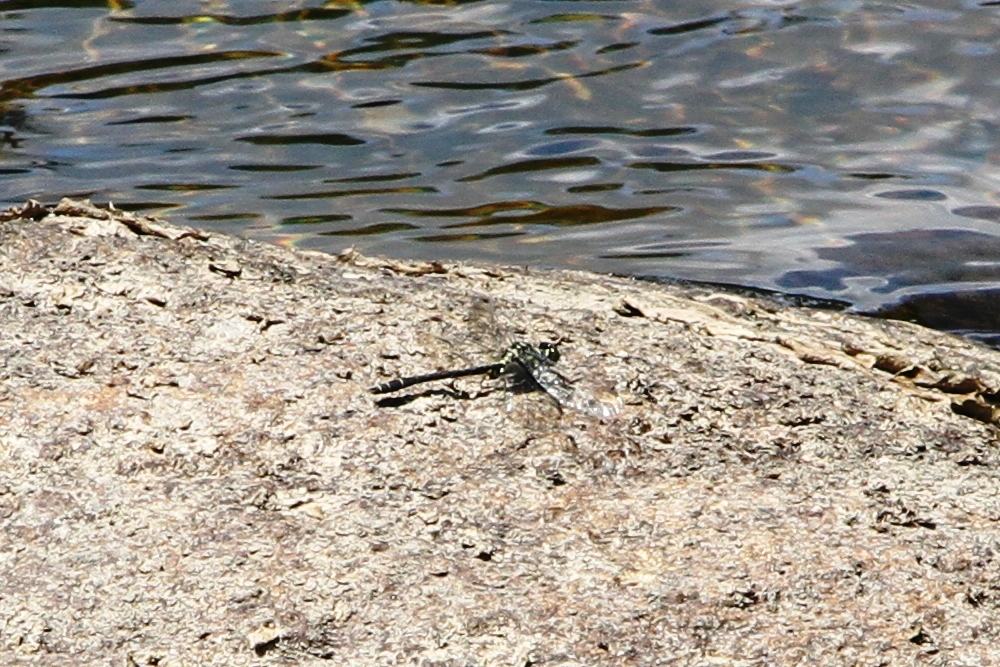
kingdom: Animalia
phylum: Arthropoda
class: Insecta
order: Odonata
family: Gomphidae
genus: Lanthus
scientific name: Lanthus parvulus
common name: Northern pygmy clubtail
